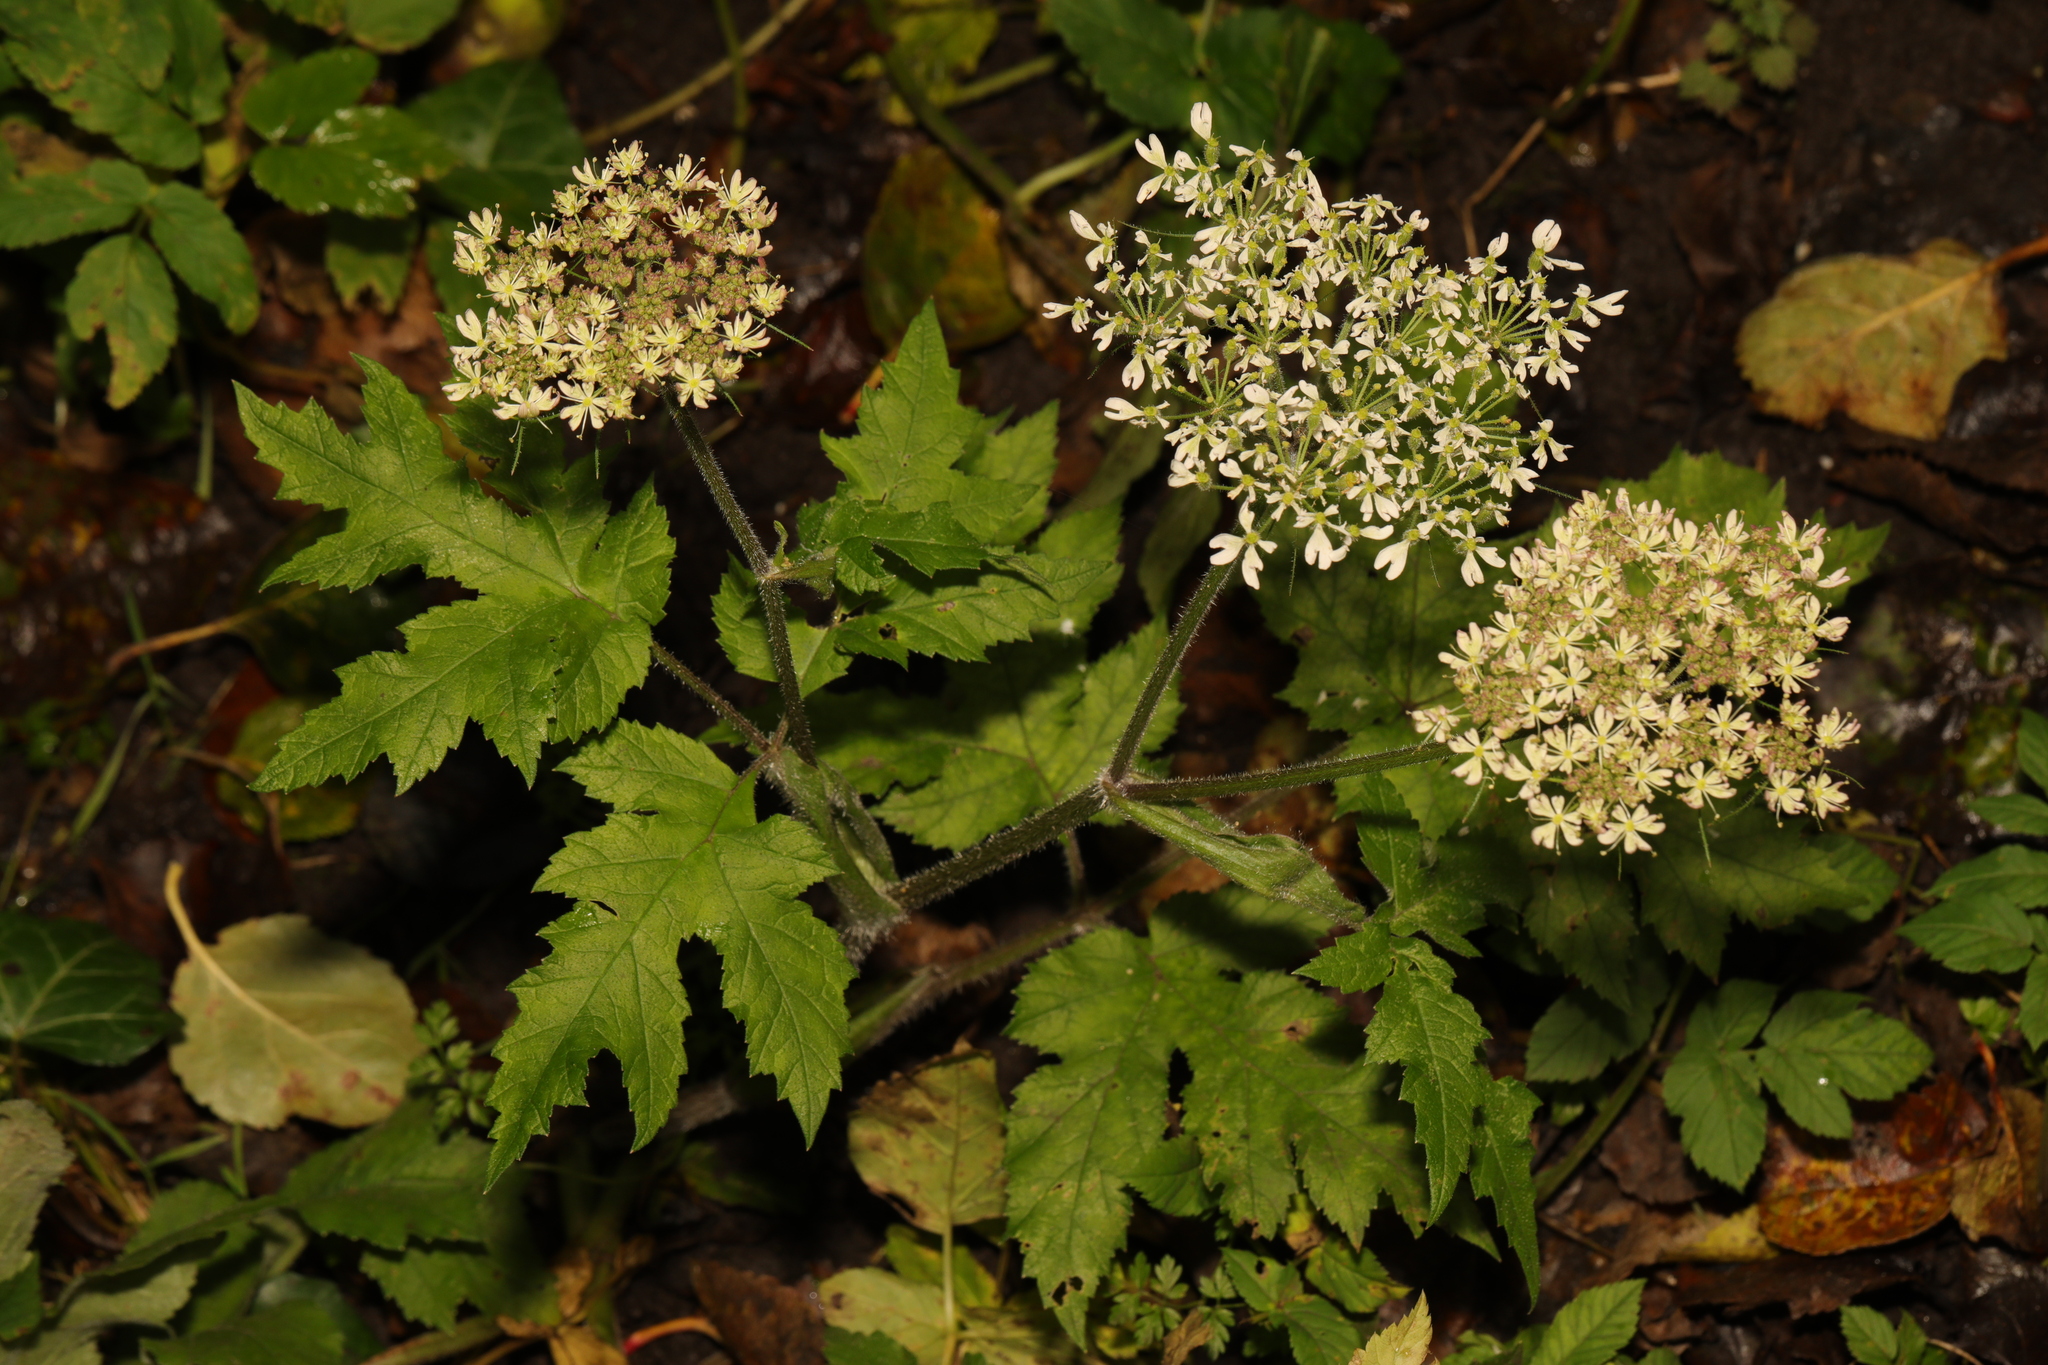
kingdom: Plantae
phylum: Tracheophyta
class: Magnoliopsida
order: Apiales
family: Apiaceae
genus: Heracleum
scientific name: Heracleum sphondylium
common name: Hogweed
